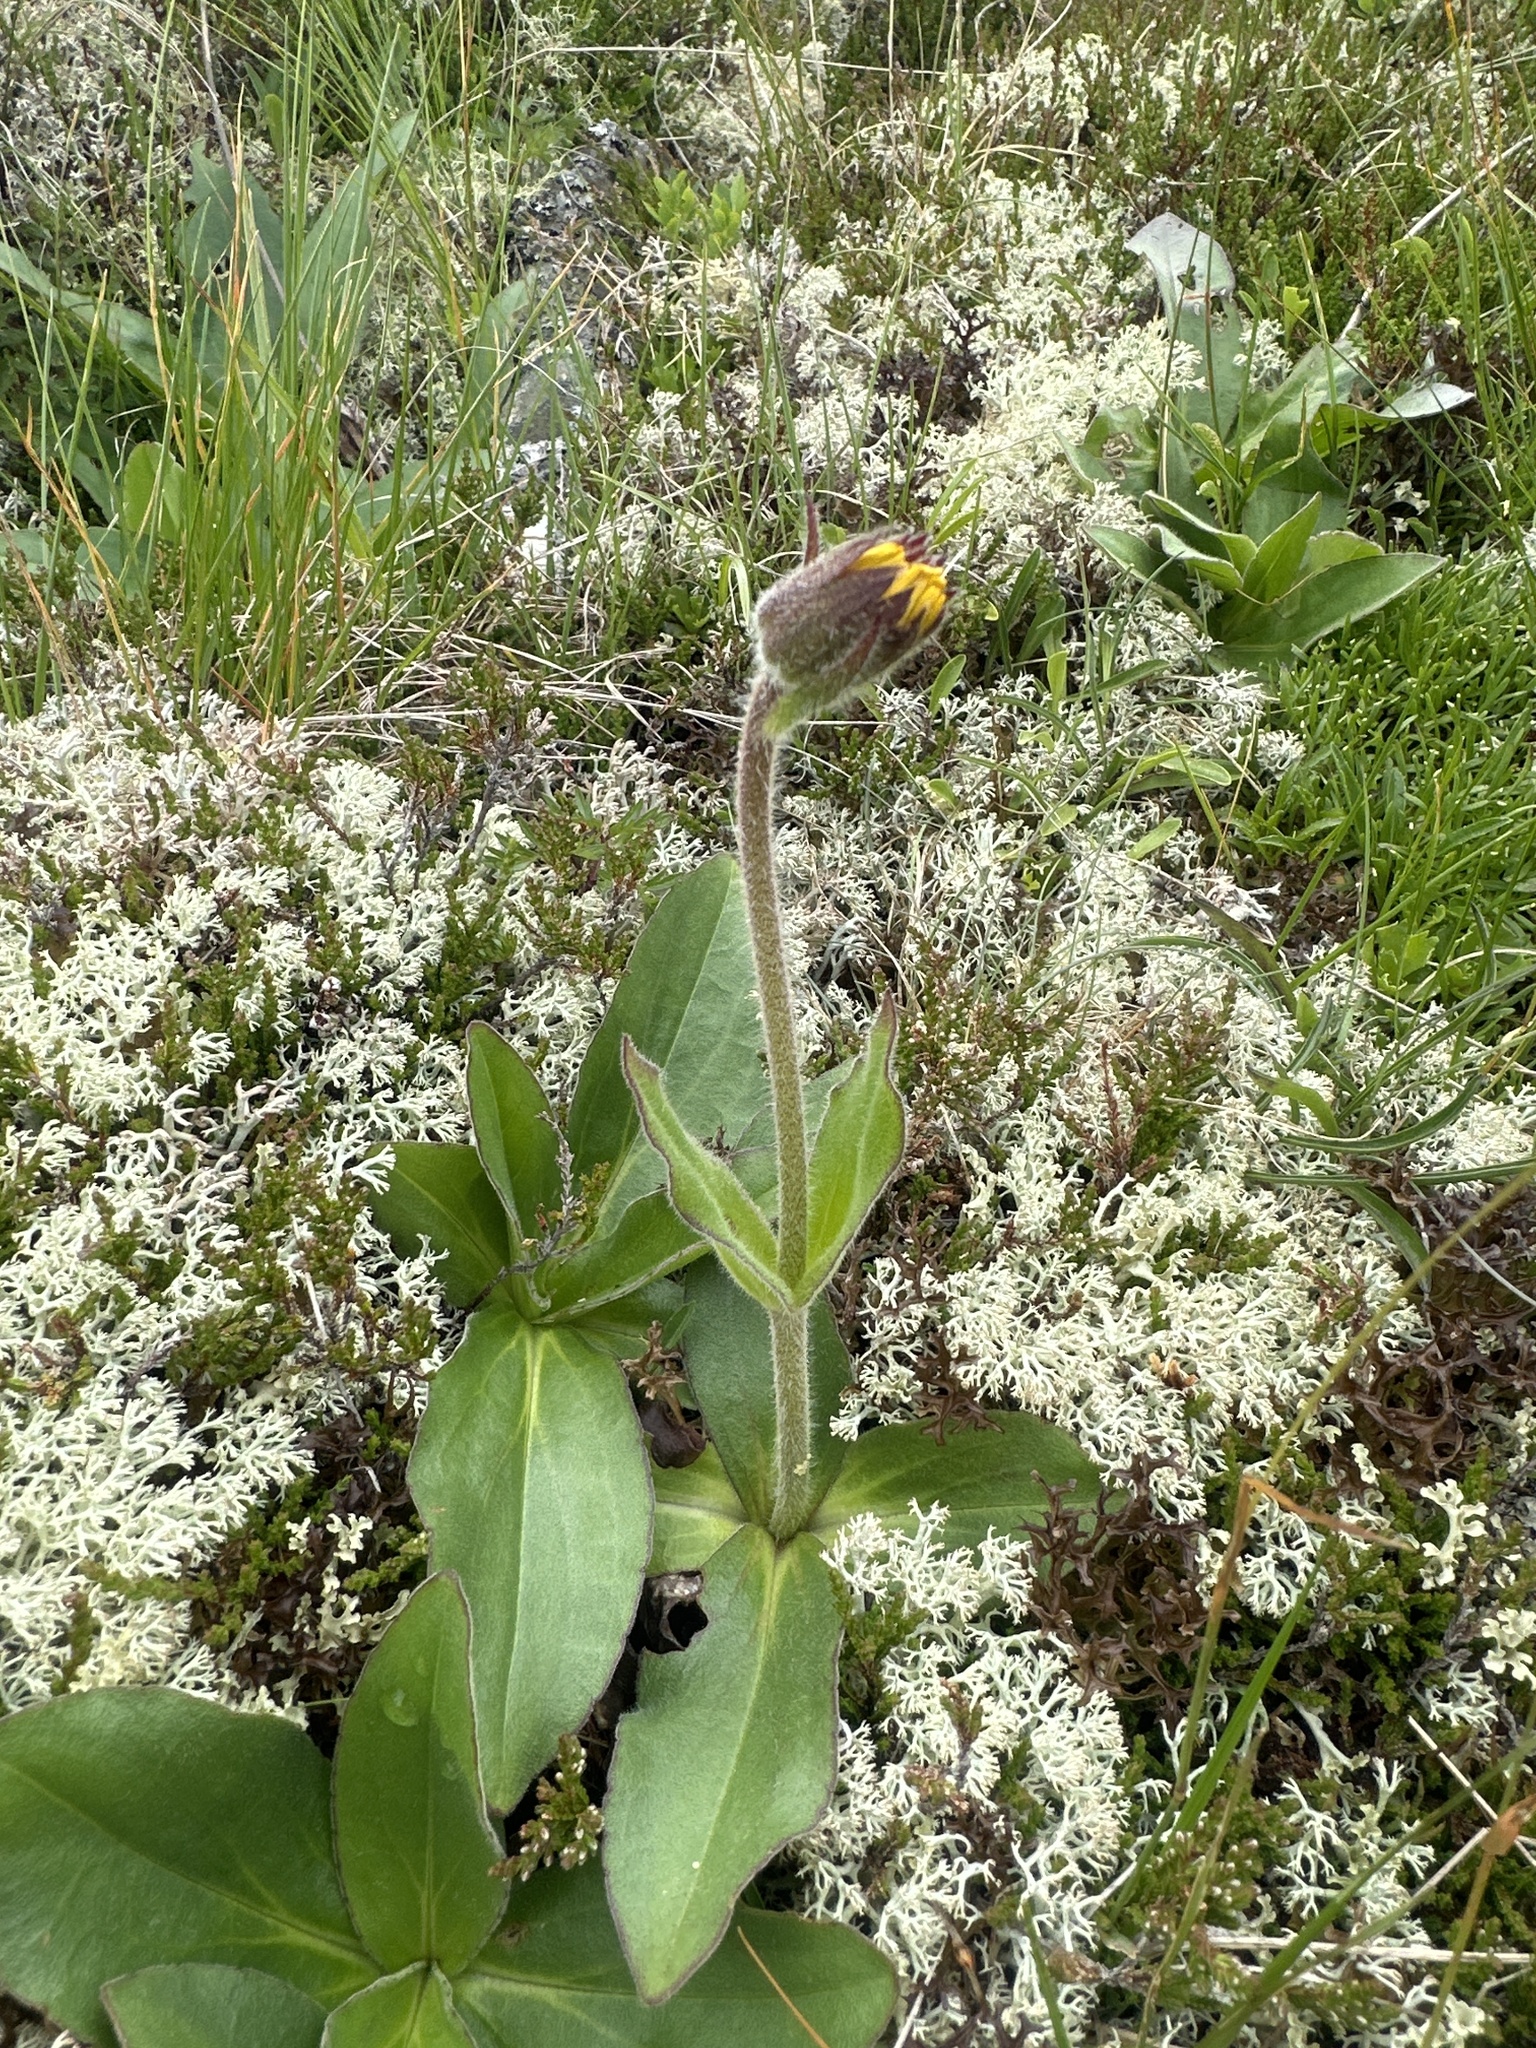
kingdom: Plantae
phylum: Tracheophyta
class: Magnoliopsida
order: Asterales
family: Asteraceae
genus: Arnica
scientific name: Arnica montana
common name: Leopard's bane
